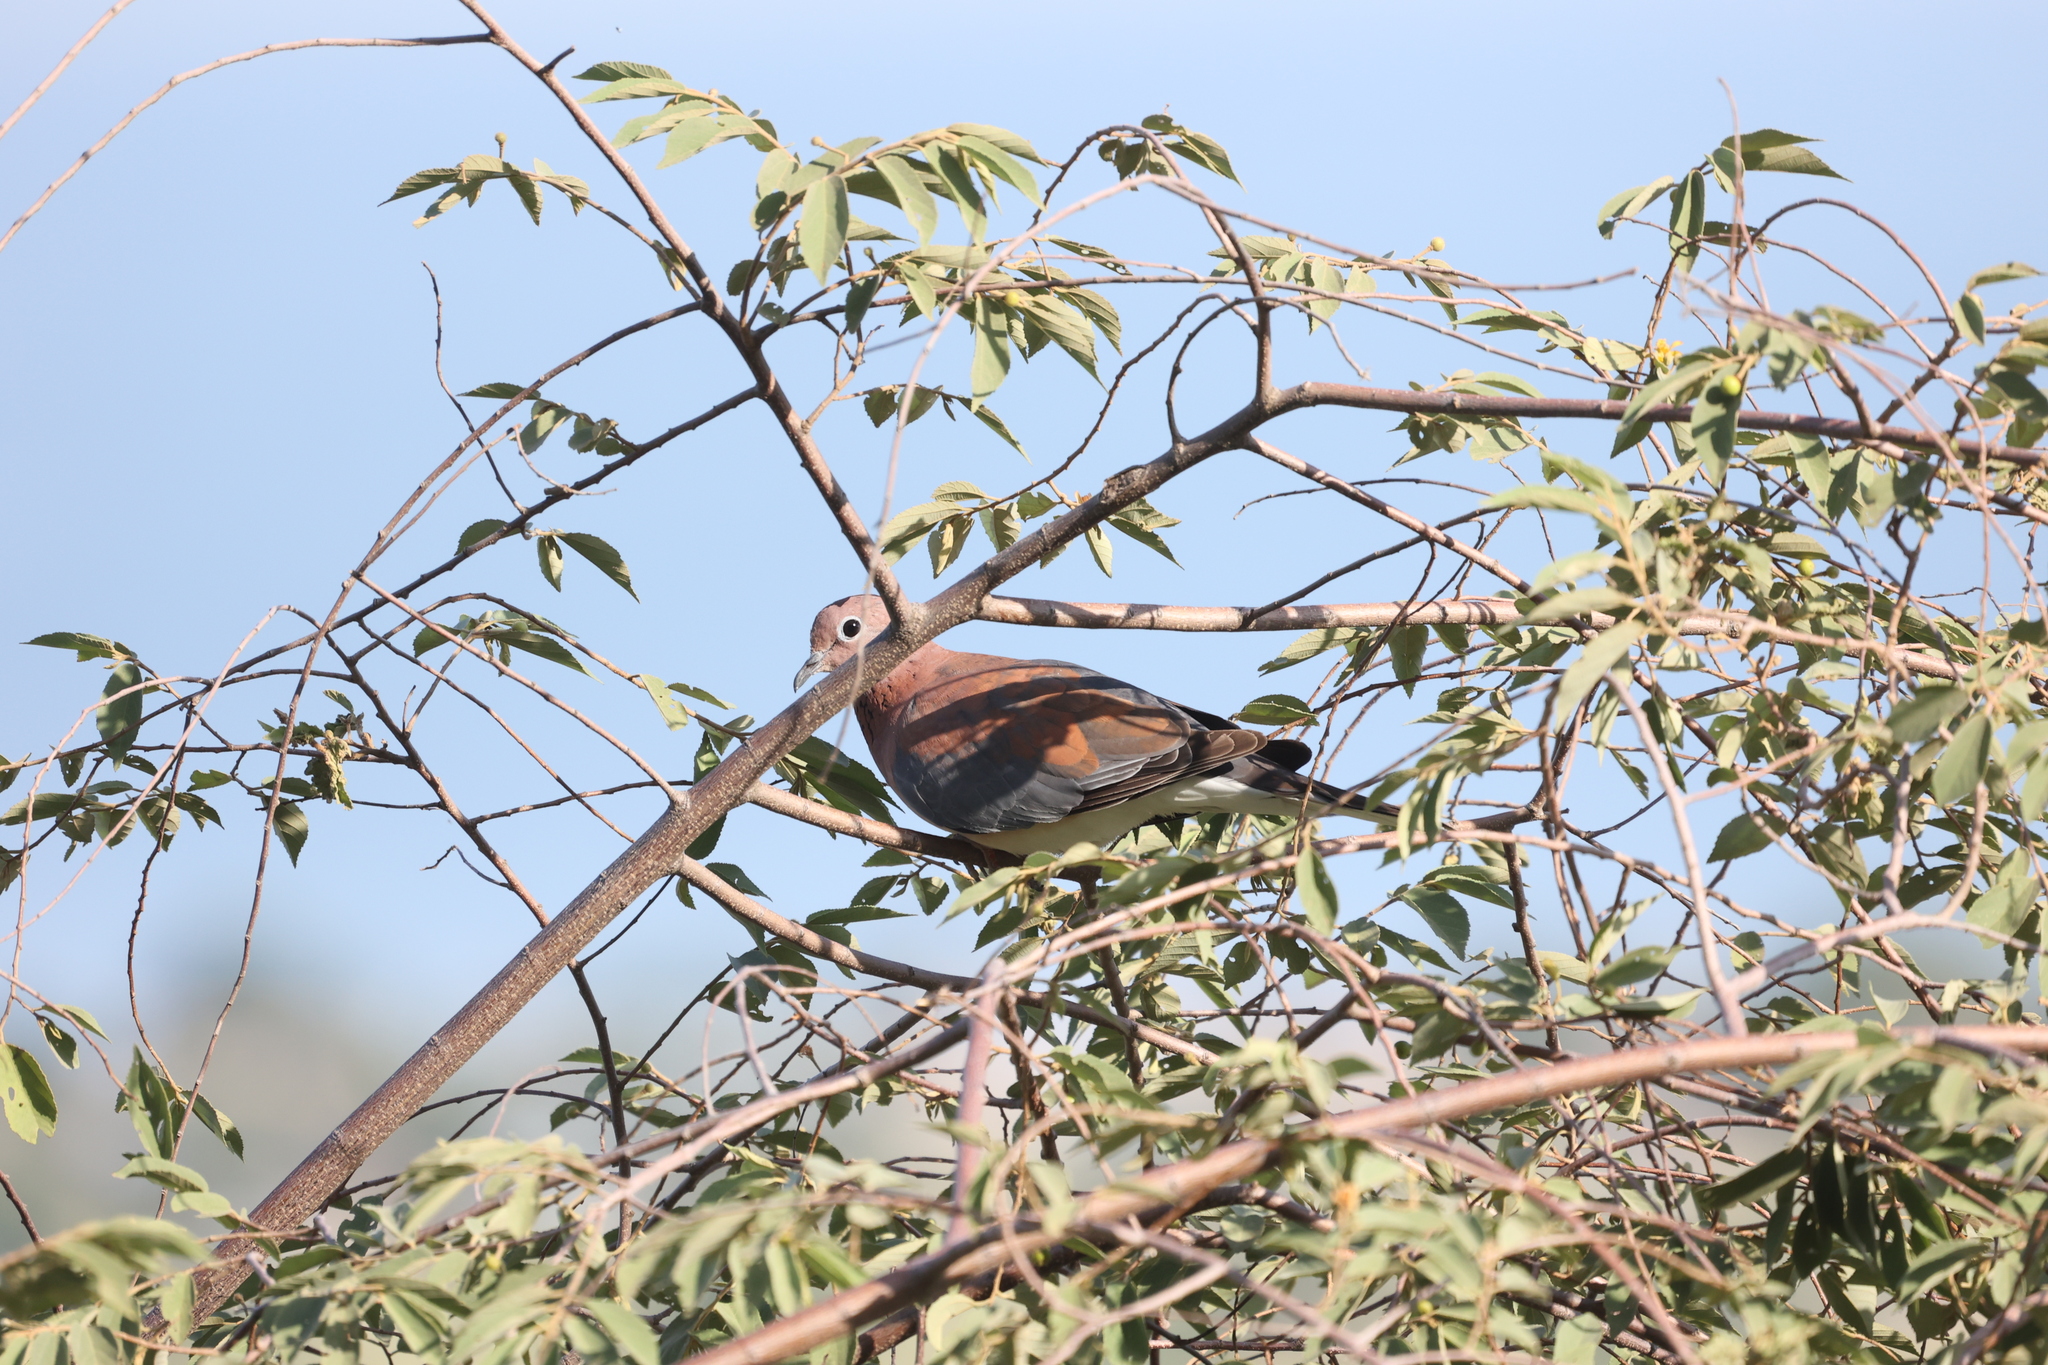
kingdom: Animalia
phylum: Chordata
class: Aves
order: Columbiformes
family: Columbidae
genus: Spilopelia
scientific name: Spilopelia senegalensis
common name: Laughing dove
